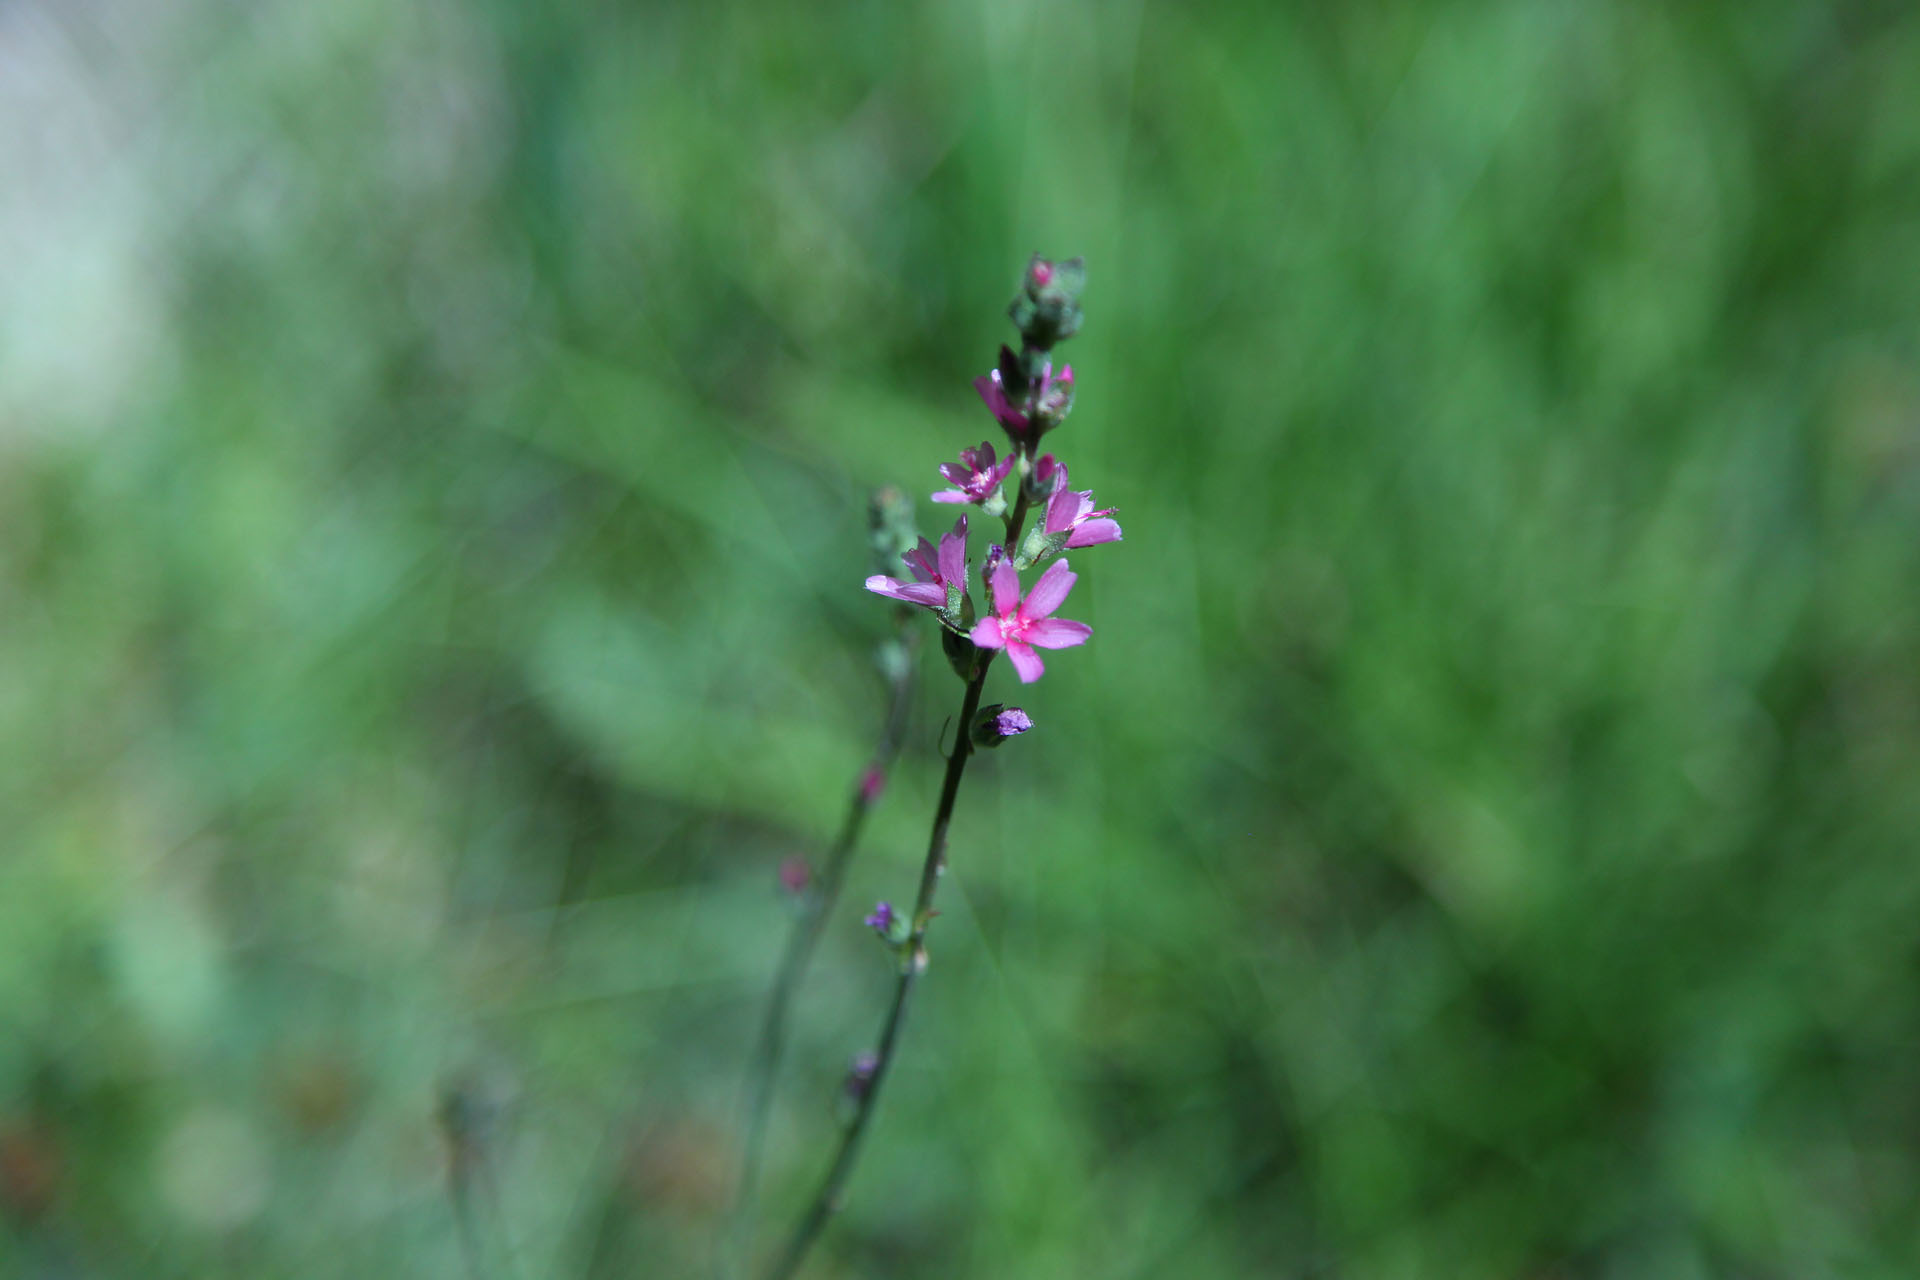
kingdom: Plantae
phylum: Tracheophyta
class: Magnoliopsida
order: Malvales
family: Malvaceae
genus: Sidalcea
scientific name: Sidalcea oregana
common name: Oregon checker-mallow
